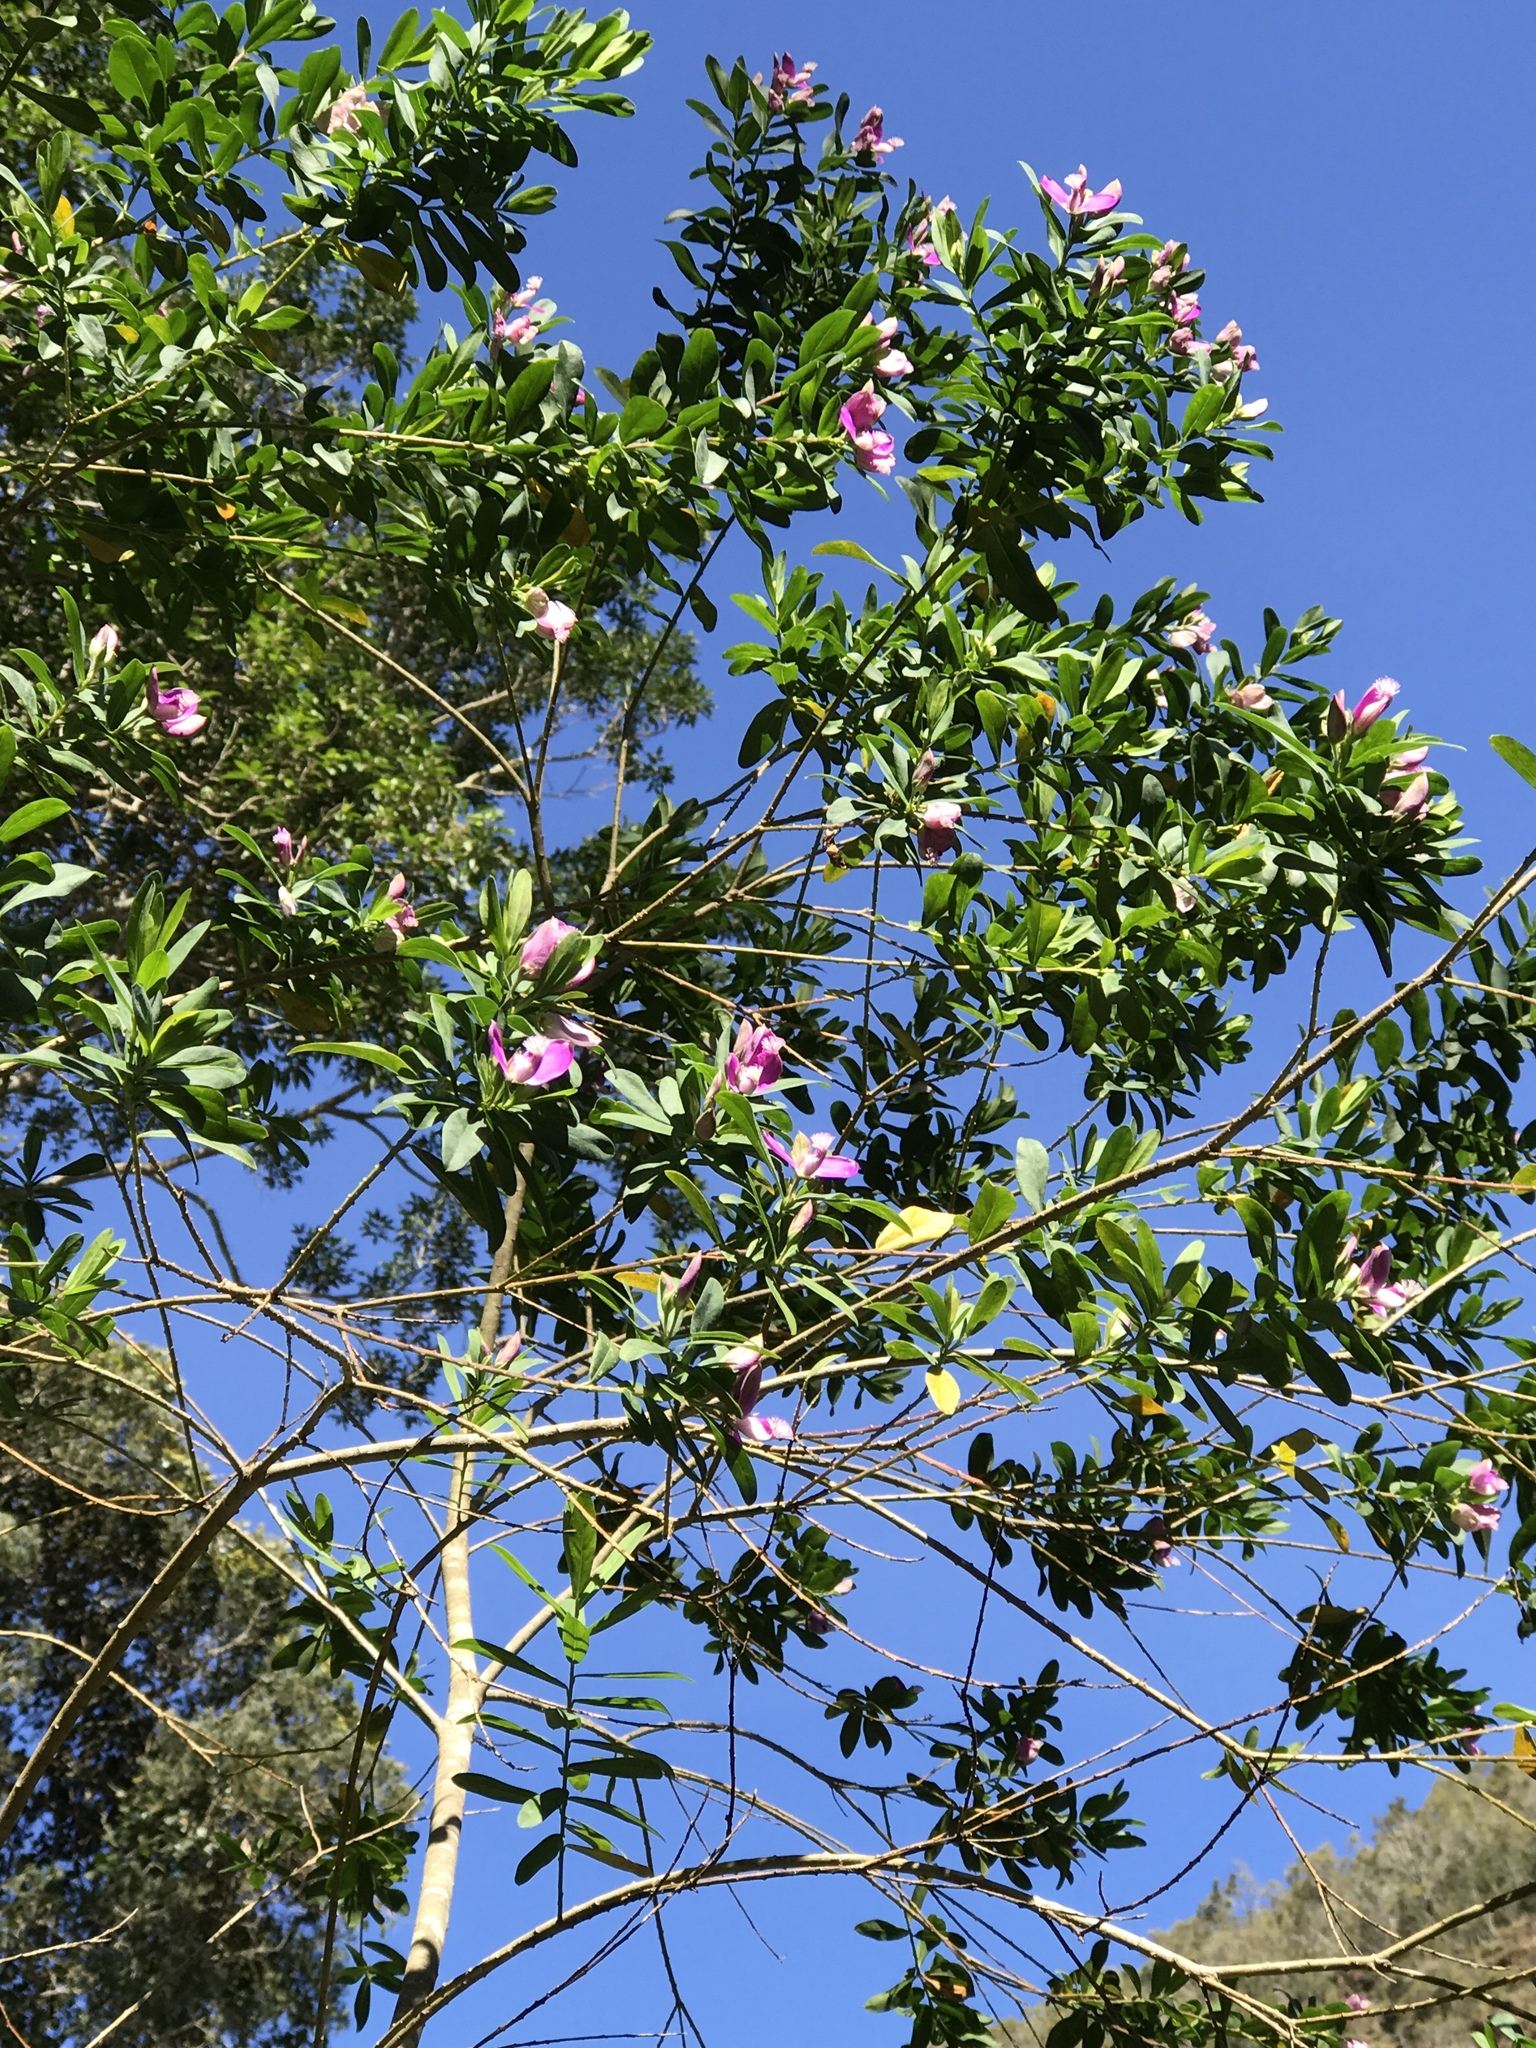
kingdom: Plantae
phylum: Tracheophyta
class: Magnoliopsida
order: Fabales
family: Polygalaceae
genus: Polygala
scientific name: Polygala myrtifolia
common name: Myrtle-leaf milkwort
